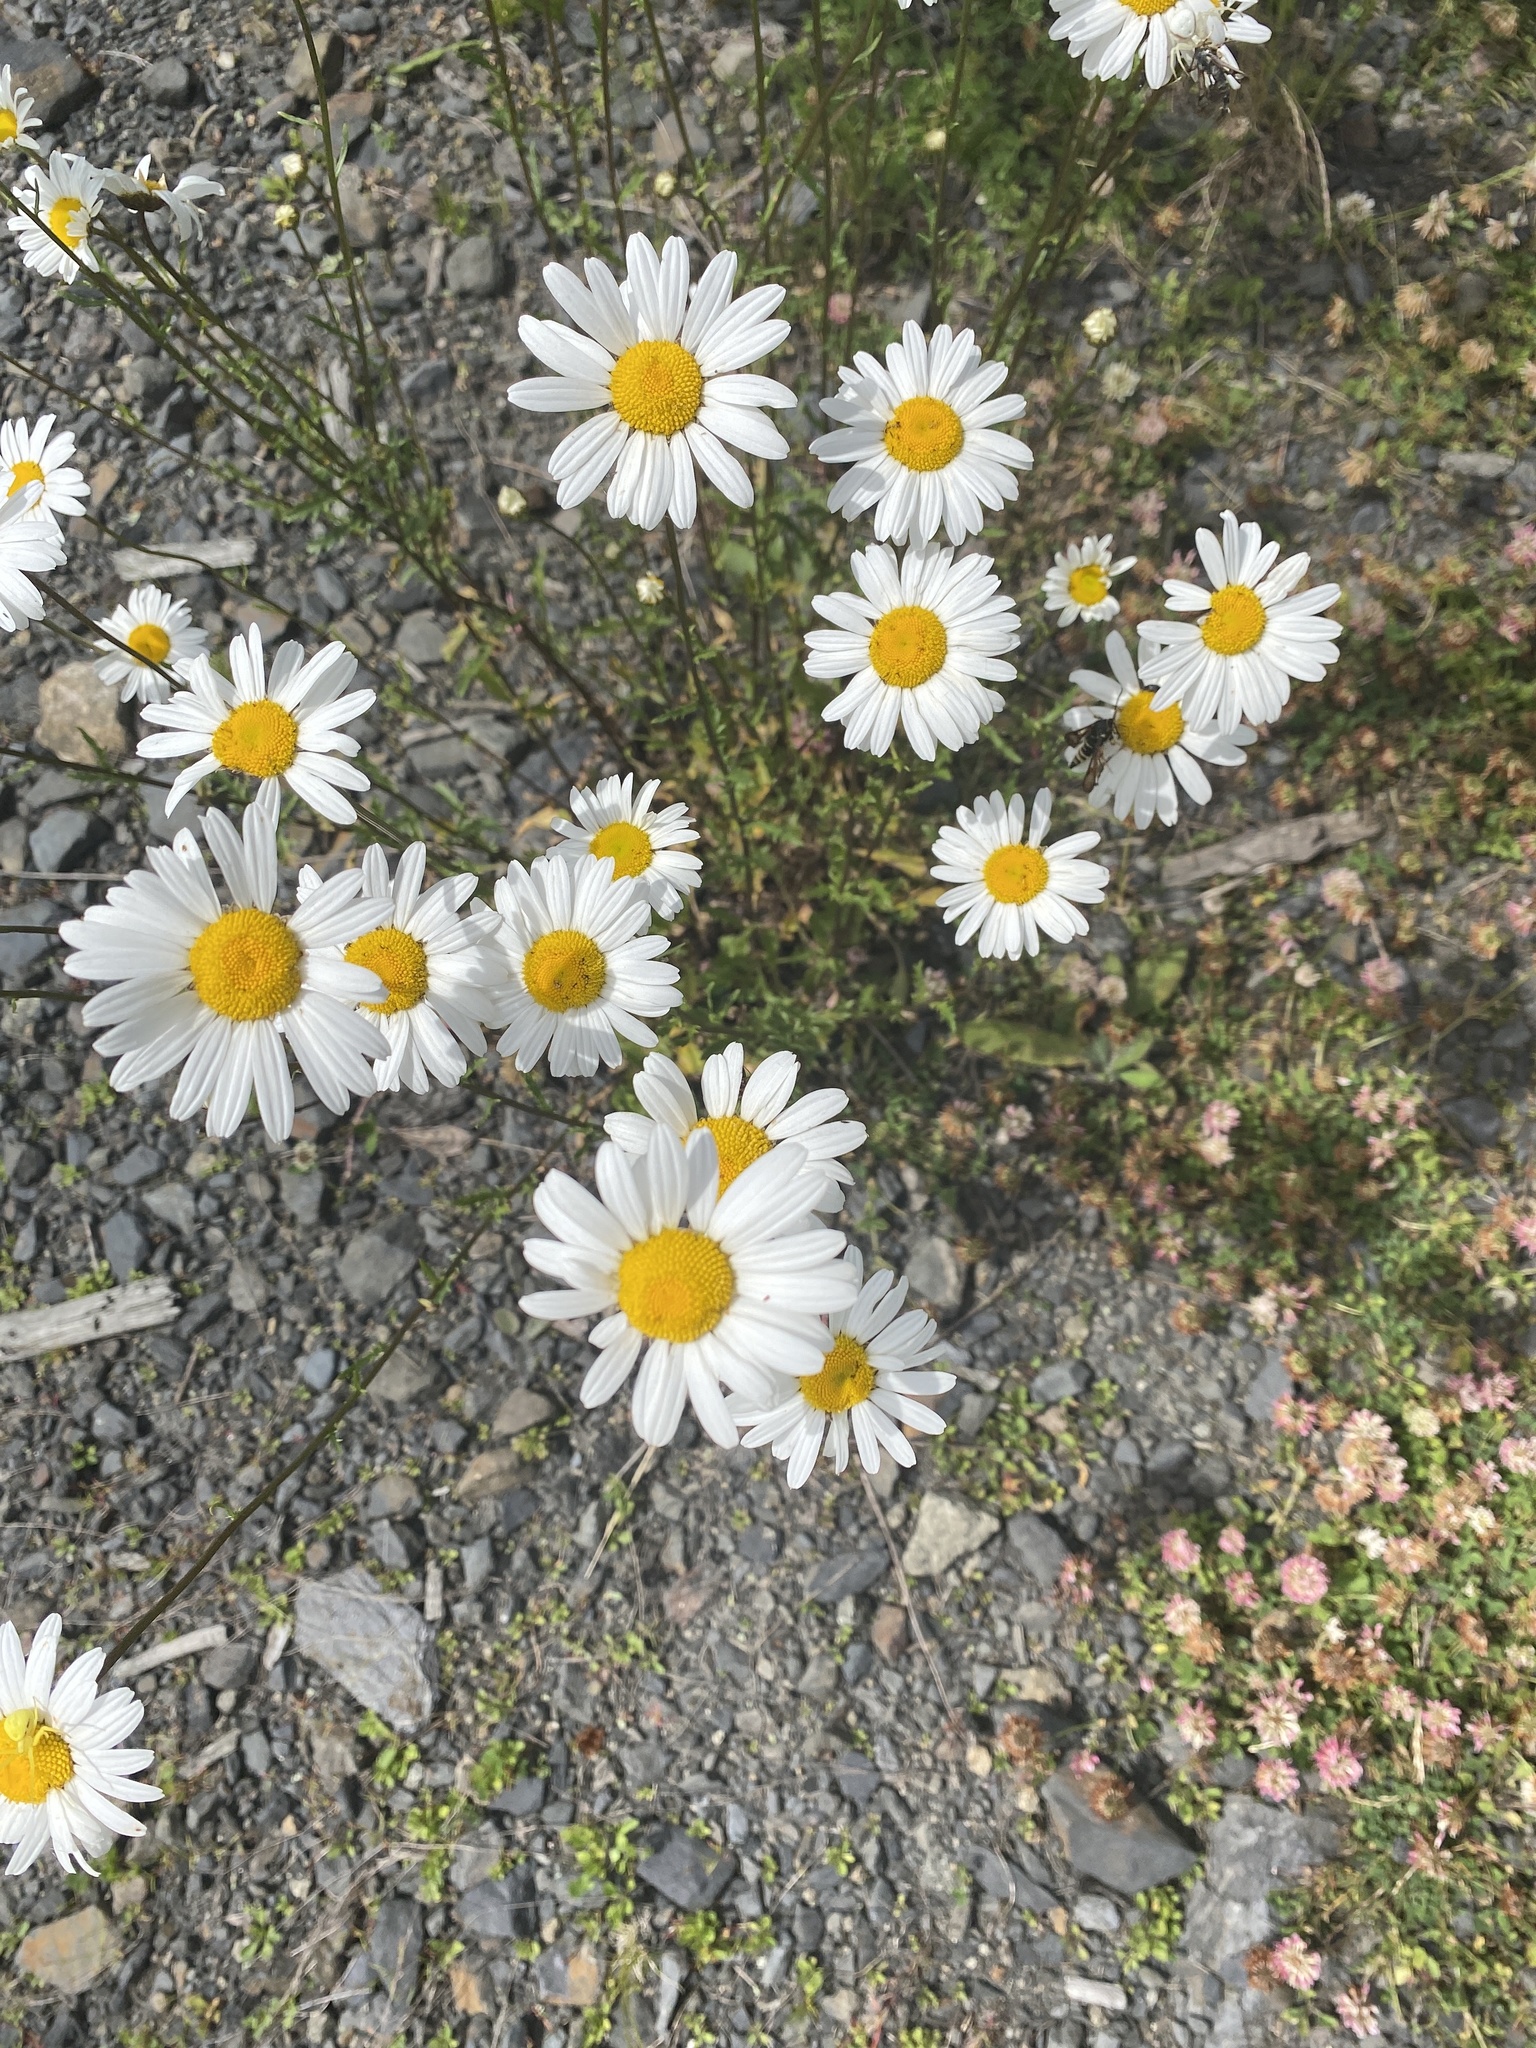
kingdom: Plantae
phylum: Tracheophyta
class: Magnoliopsida
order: Asterales
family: Asteraceae
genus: Leucanthemum
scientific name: Leucanthemum vulgare
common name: Oxeye daisy
